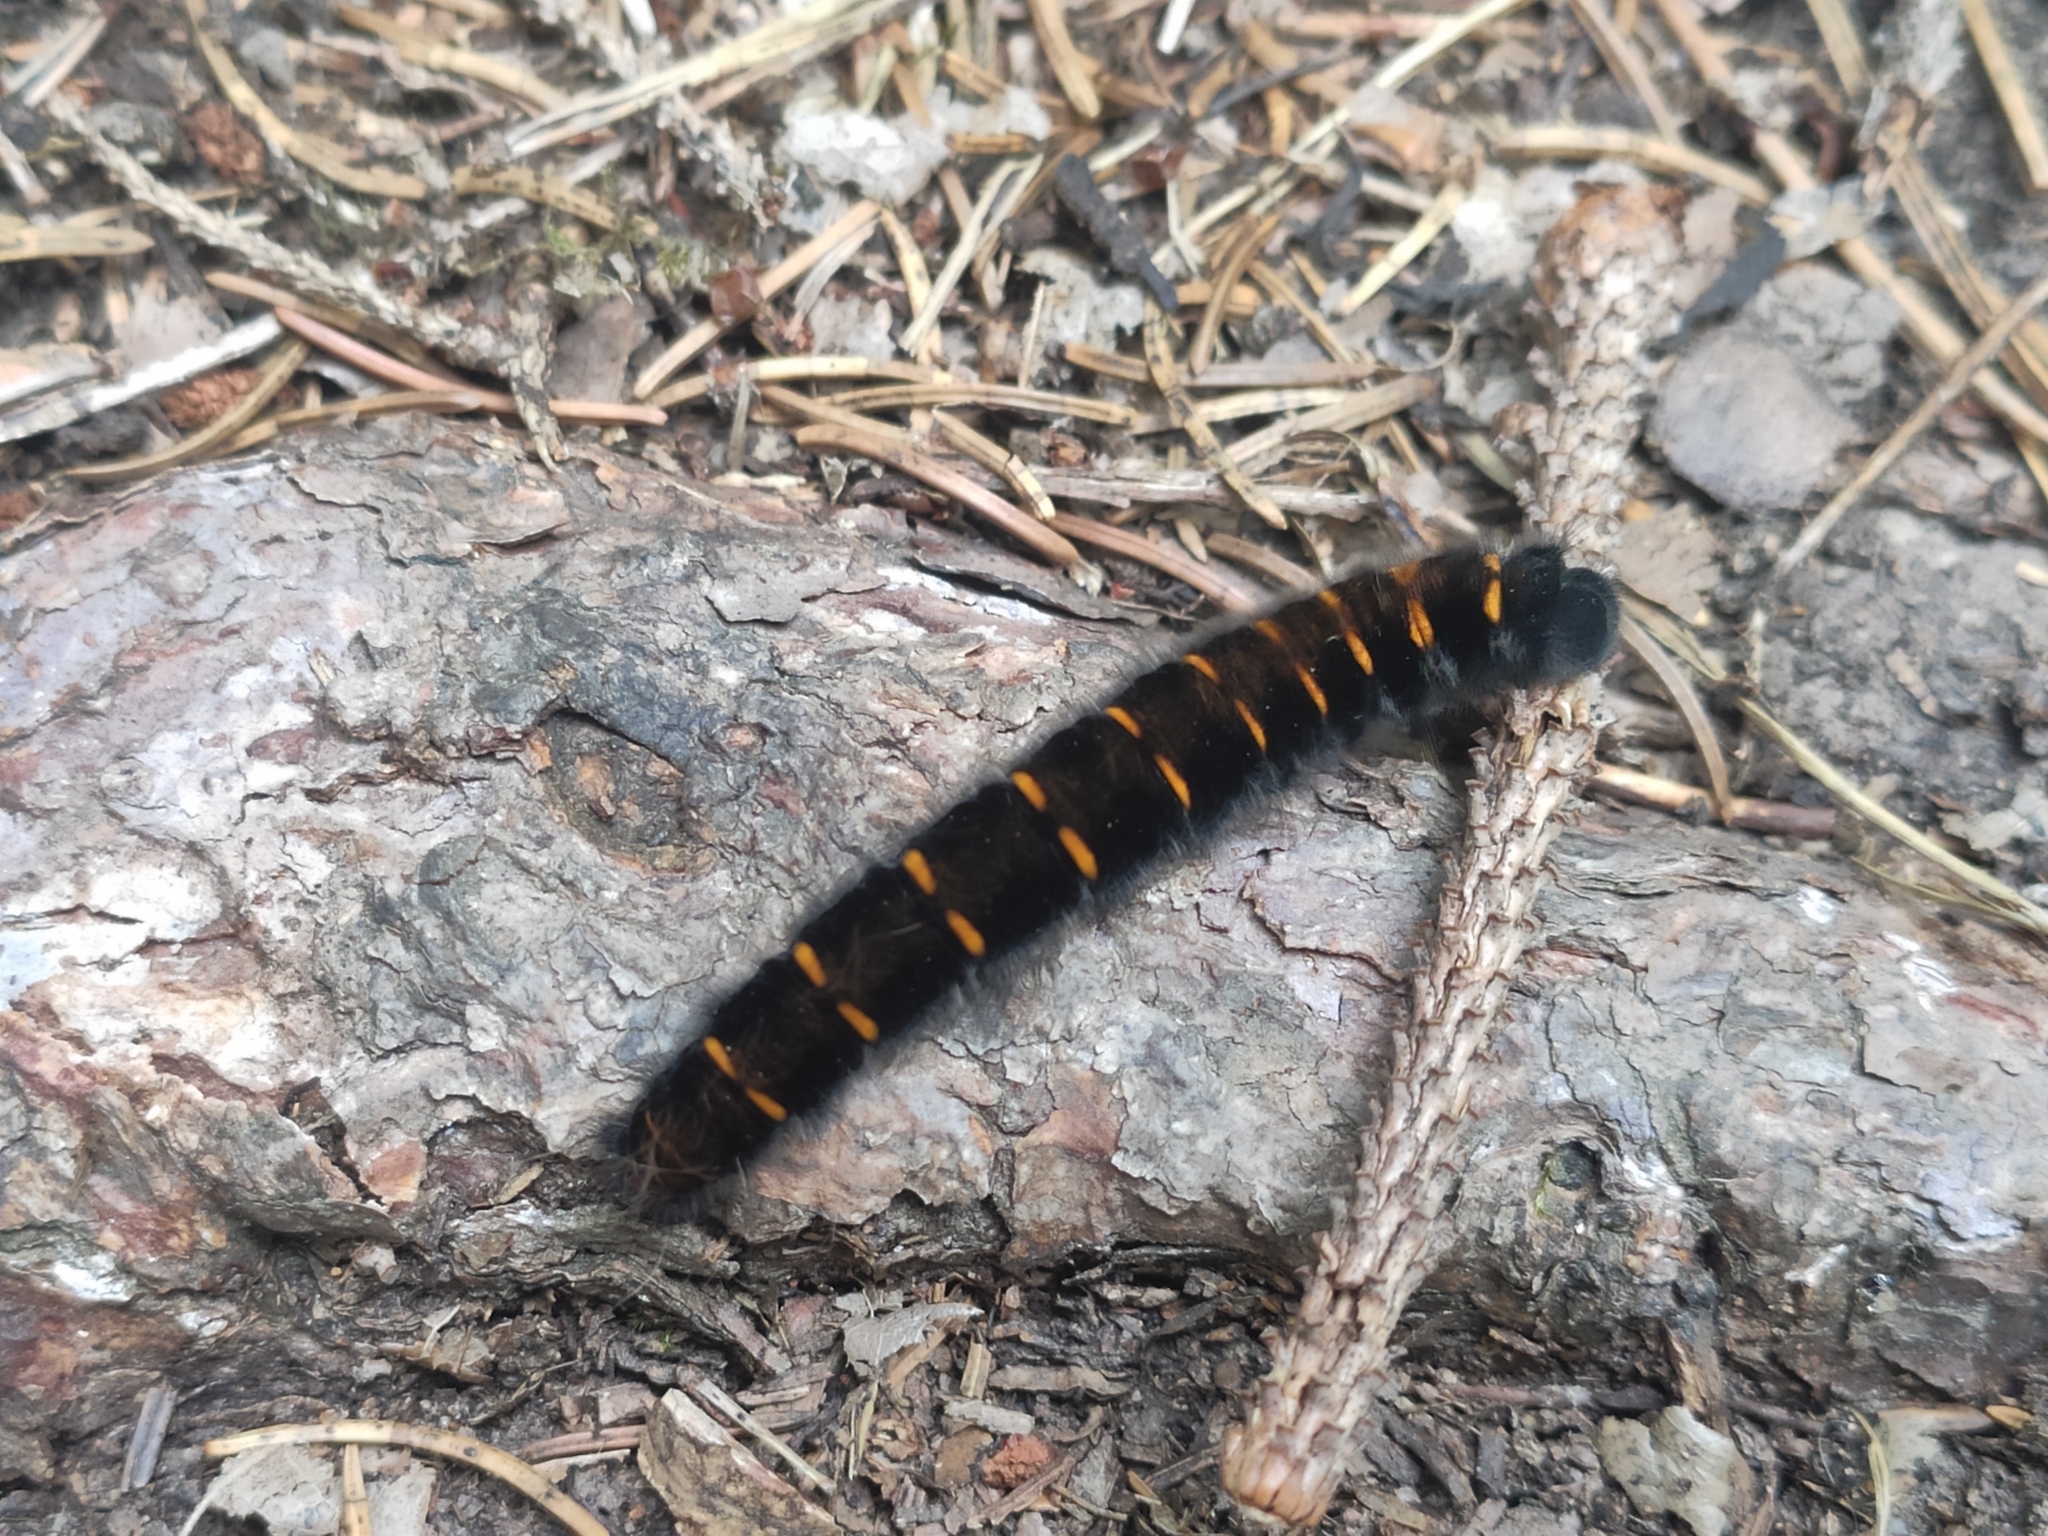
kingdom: Animalia
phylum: Arthropoda
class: Insecta
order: Lepidoptera
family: Lasiocampidae
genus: Macrothylacia
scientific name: Macrothylacia rubi
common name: Fox moth
